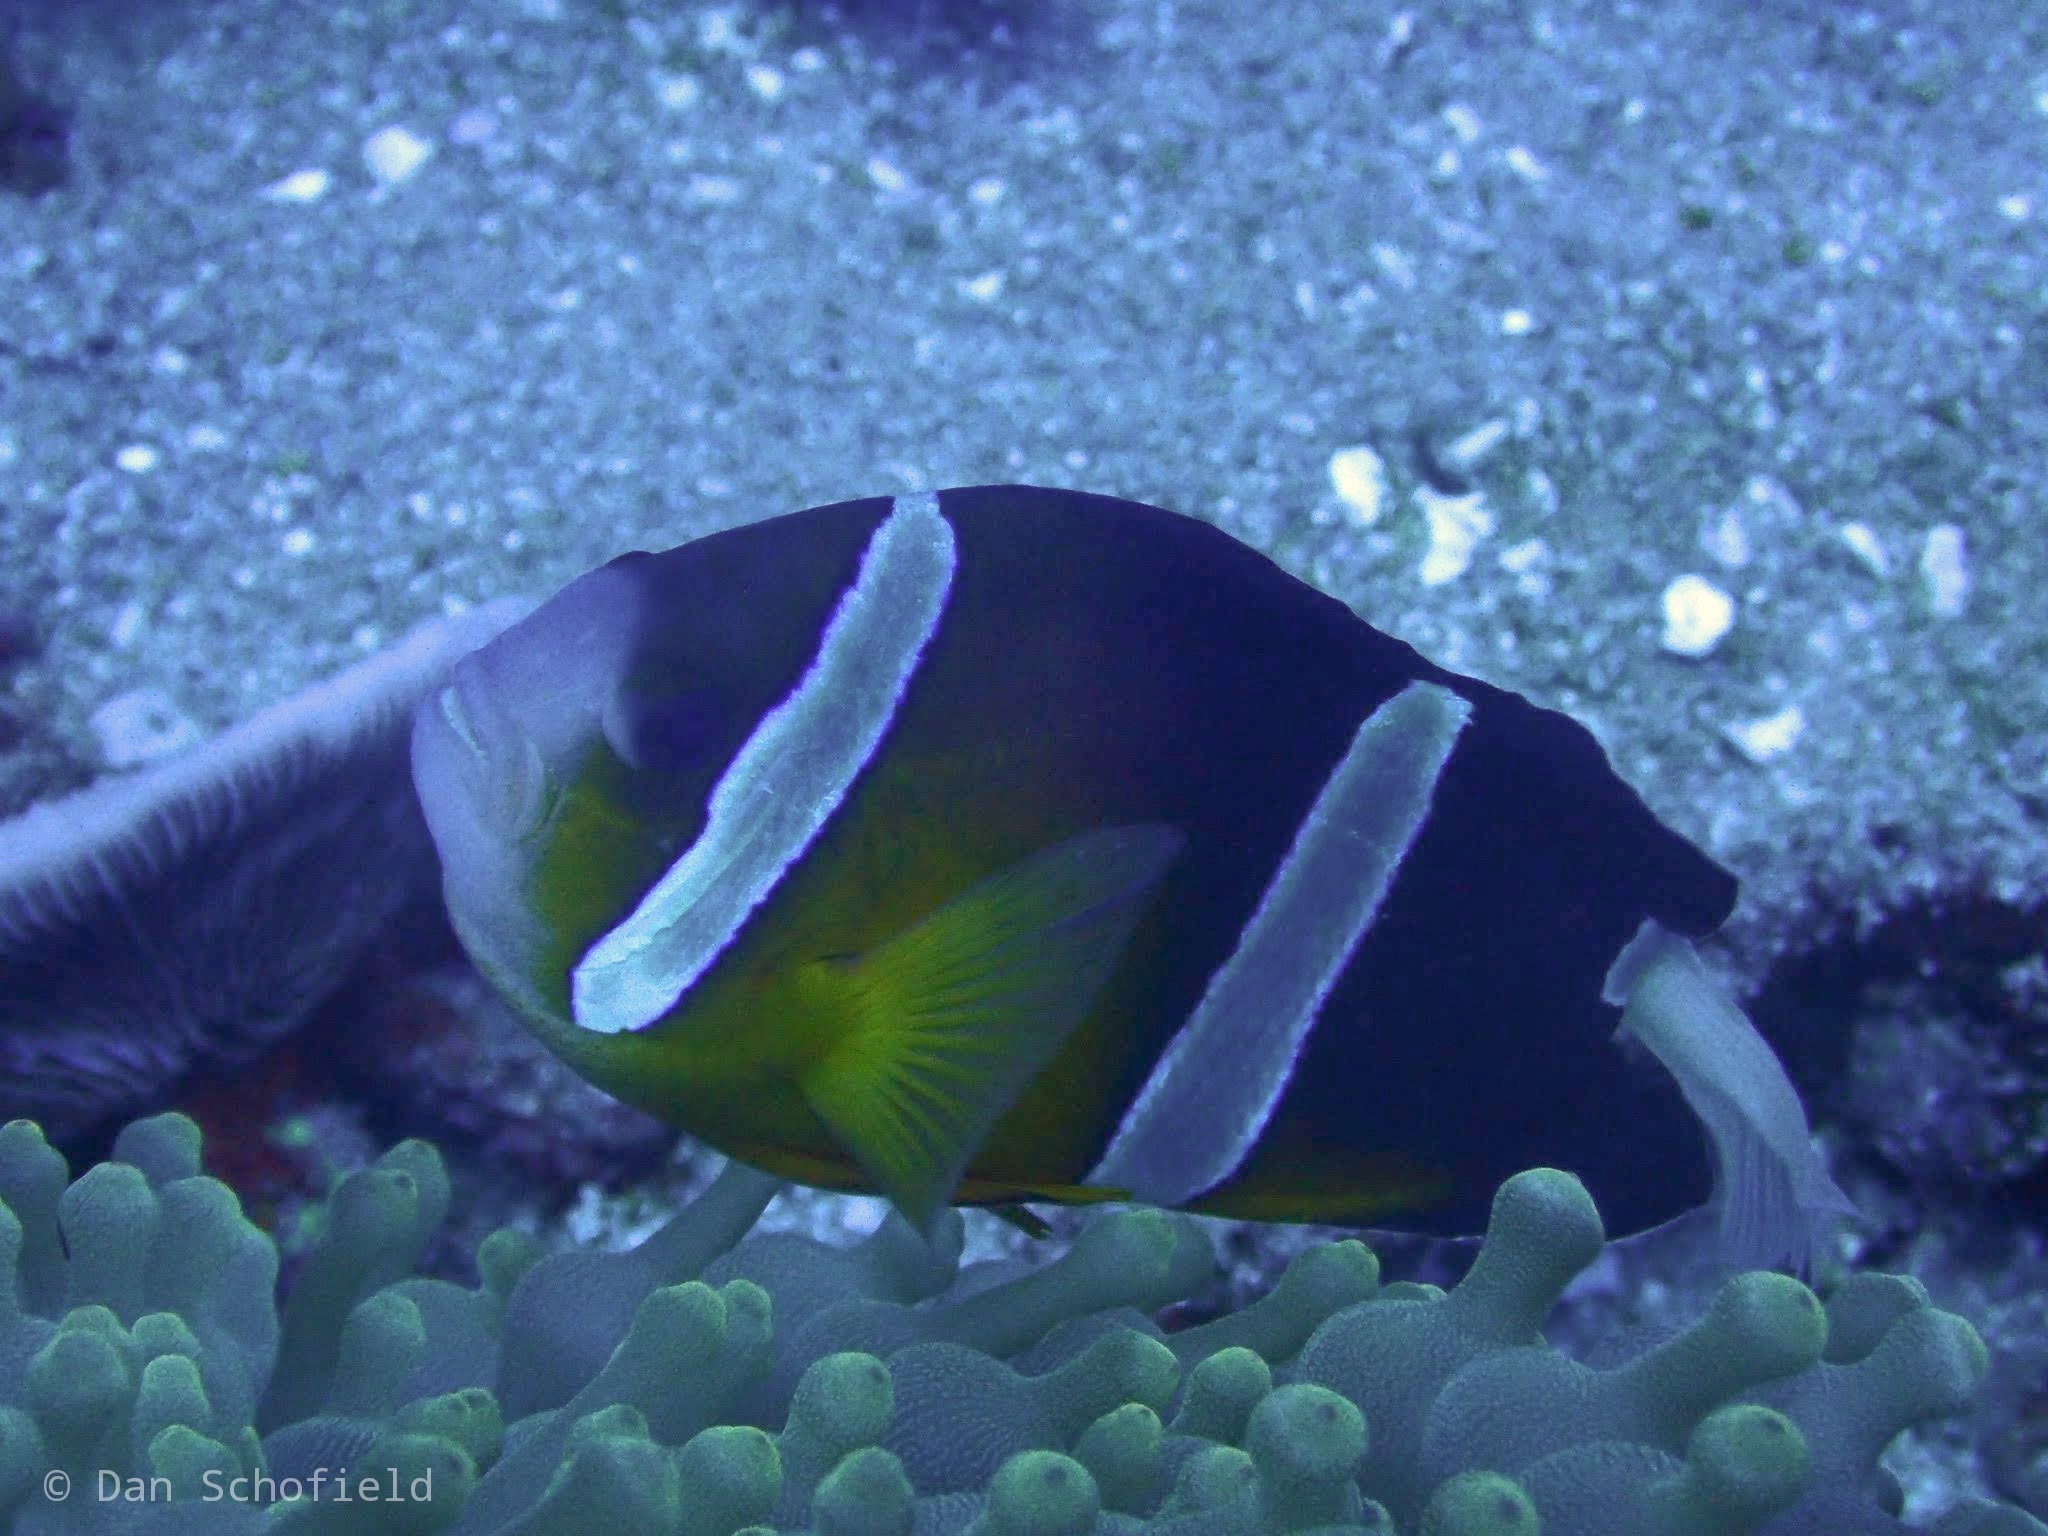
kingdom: Animalia
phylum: Chordata
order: Perciformes
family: Pomacentridae
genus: Amphiprion
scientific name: Amphiprion clarkii
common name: Clark's anemonefish
